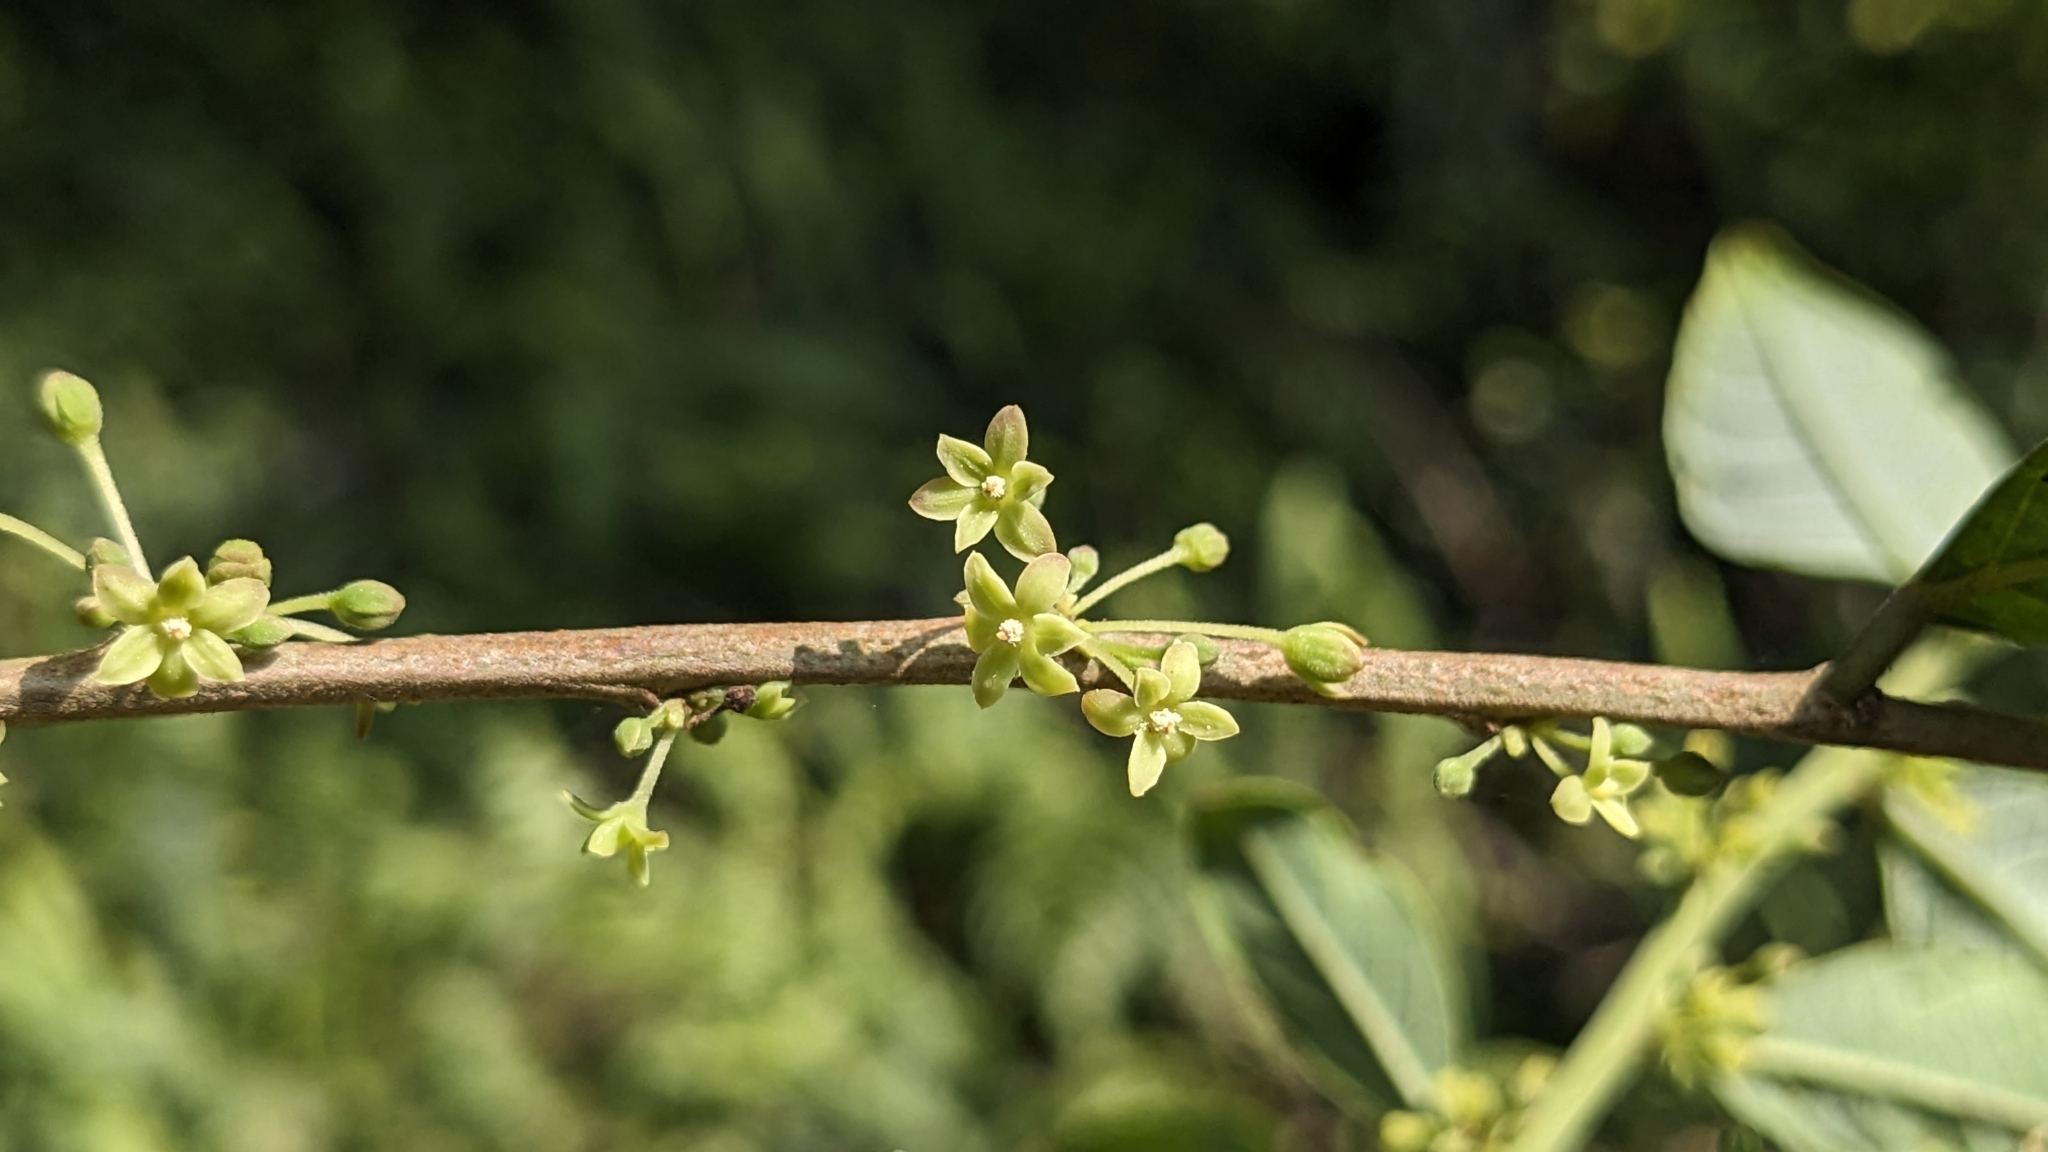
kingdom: Plantae
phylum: Tracheophyta
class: Magnoliopsida
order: Malpighiales
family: Phyllanthaceae
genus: Glochidion
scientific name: Glochidion acuminatum
